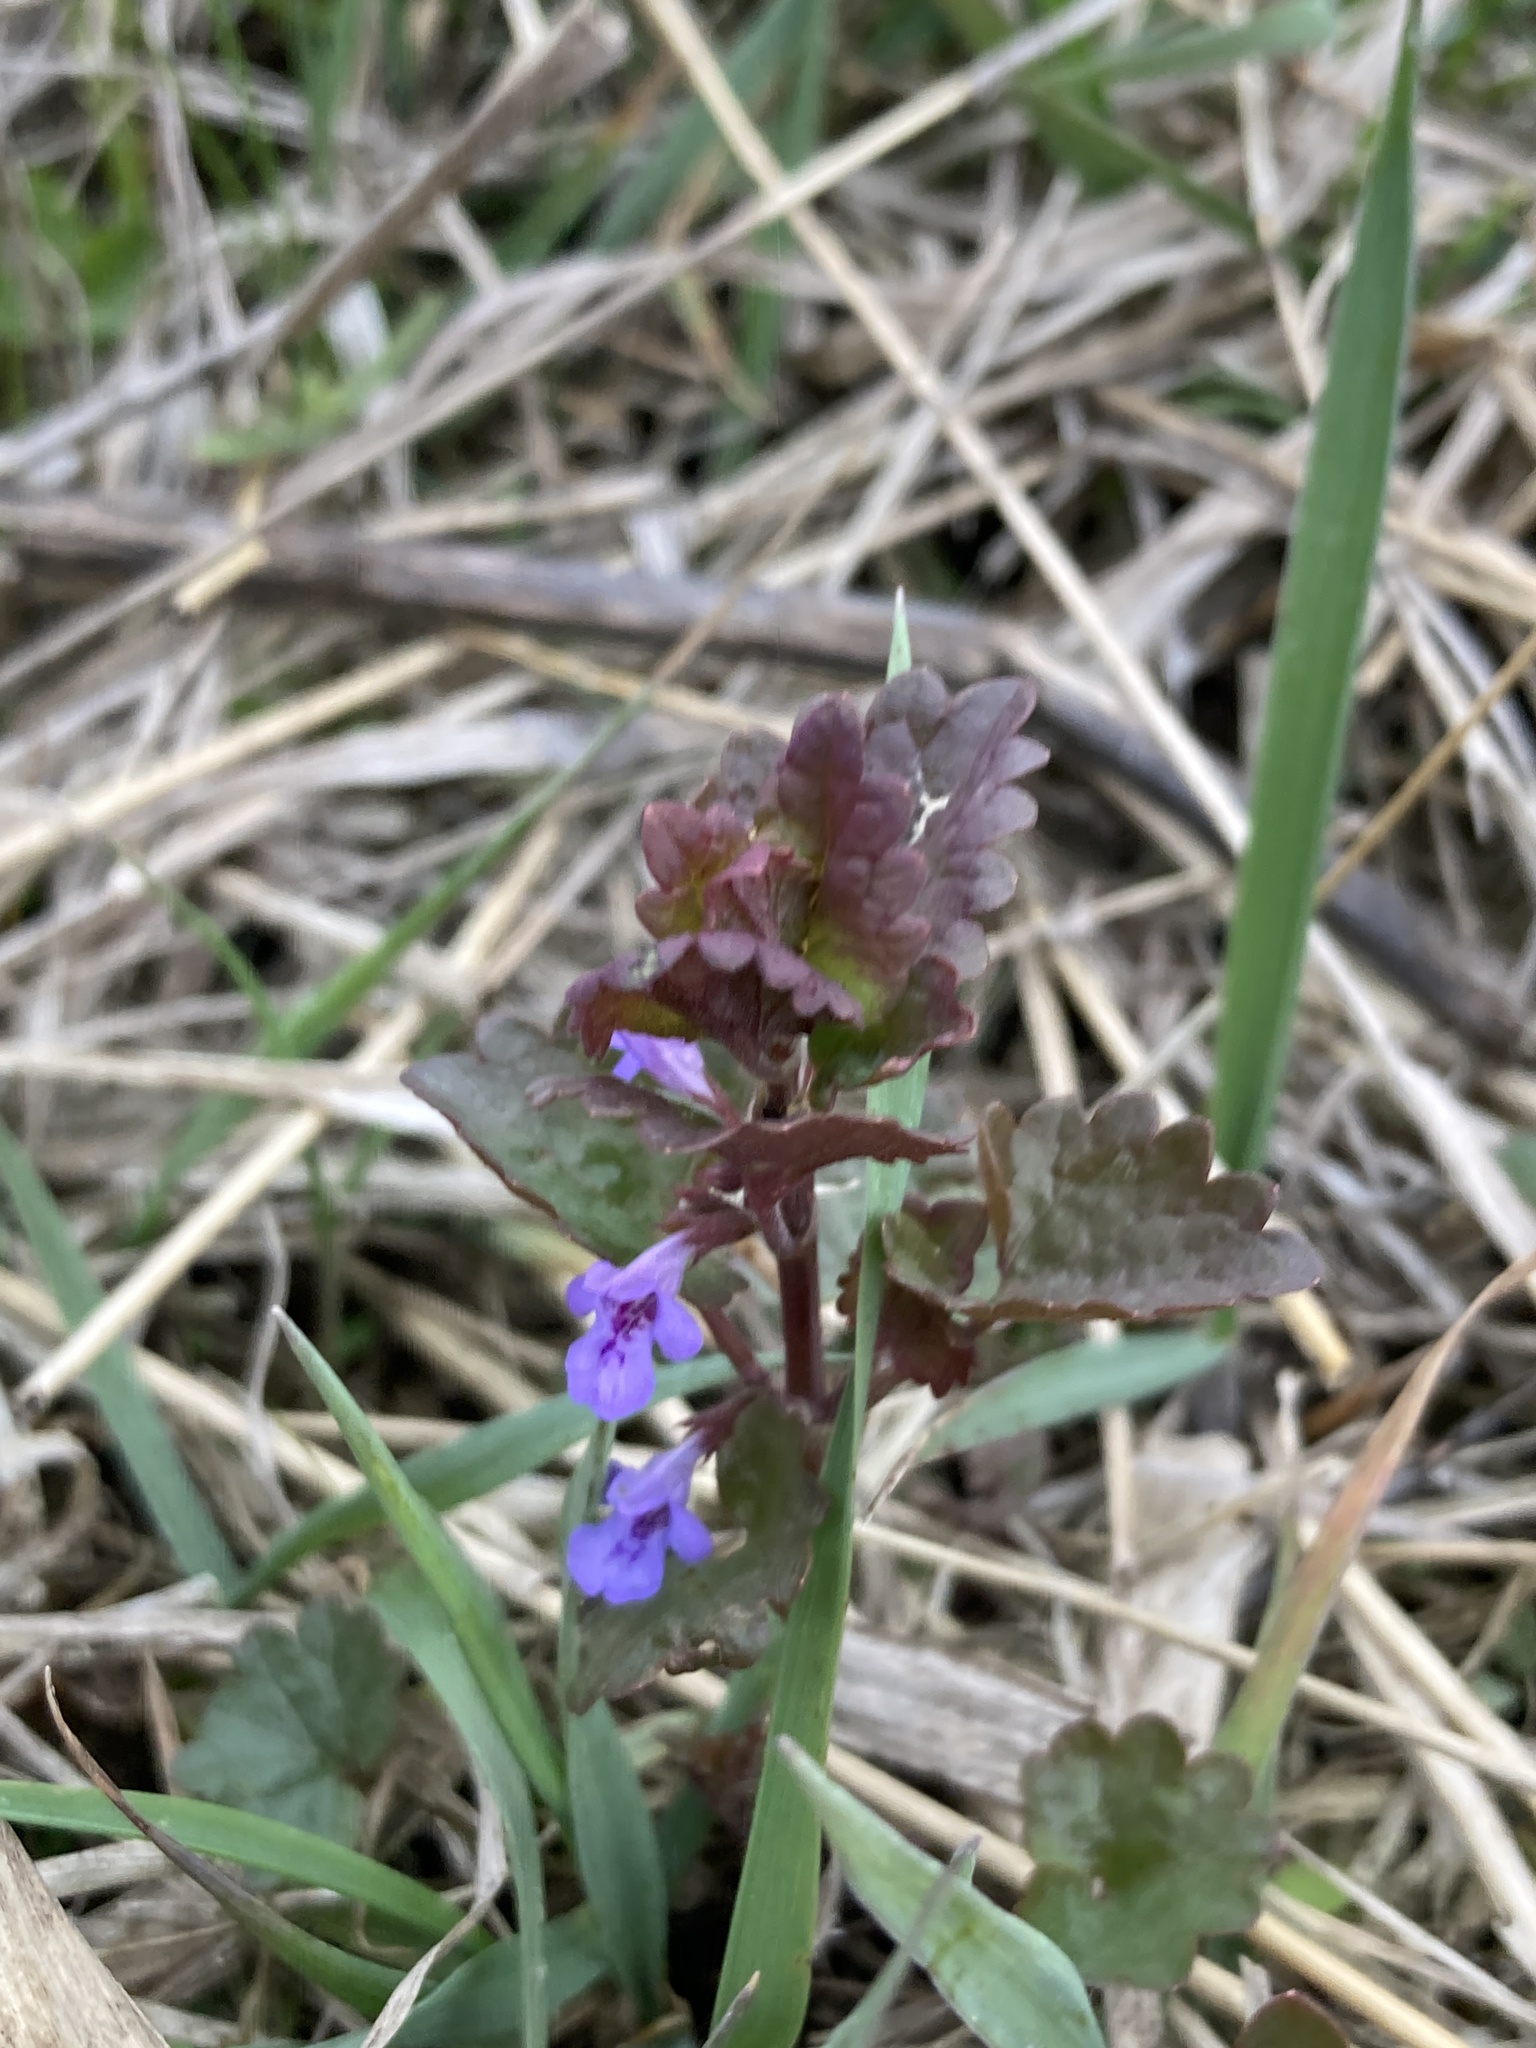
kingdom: Plantae
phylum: Tracheophyta
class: Magnoliopsida
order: Lamiales
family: Lamiaceae
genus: Glechoma
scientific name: Glechoma hederacea
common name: Ground ivy
